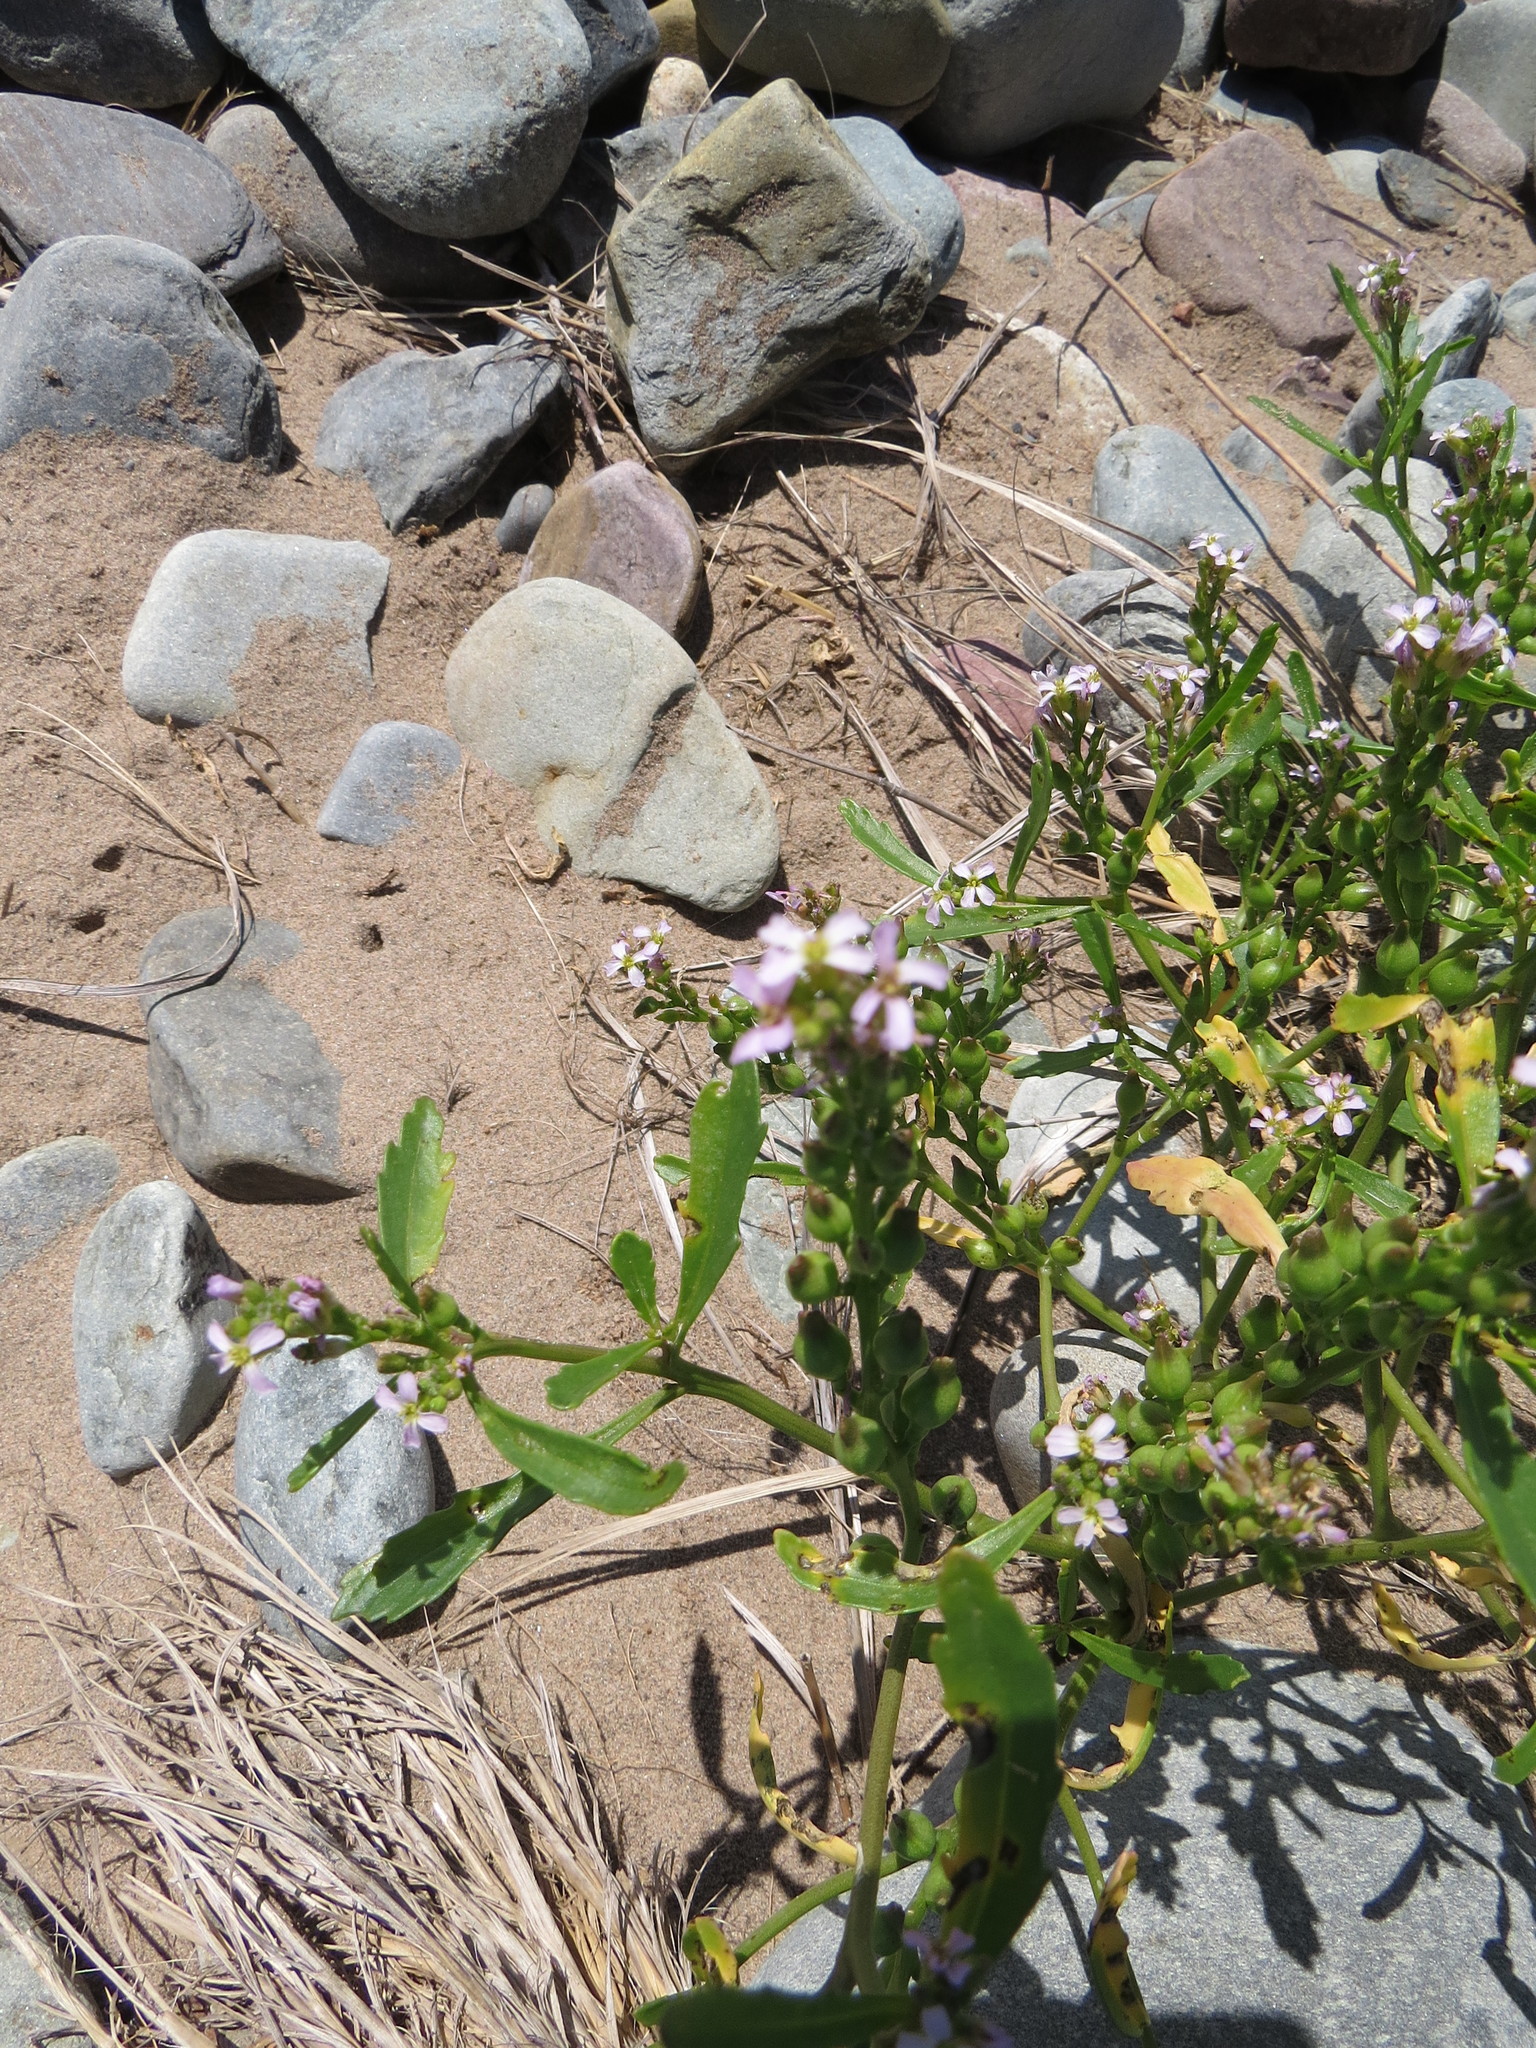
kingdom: Plantae
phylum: Tracheophyta
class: Magnoliopsida
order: Brassicales
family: Brassicaceae
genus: Cakile
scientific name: Cakile edentula
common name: American sea rocket
